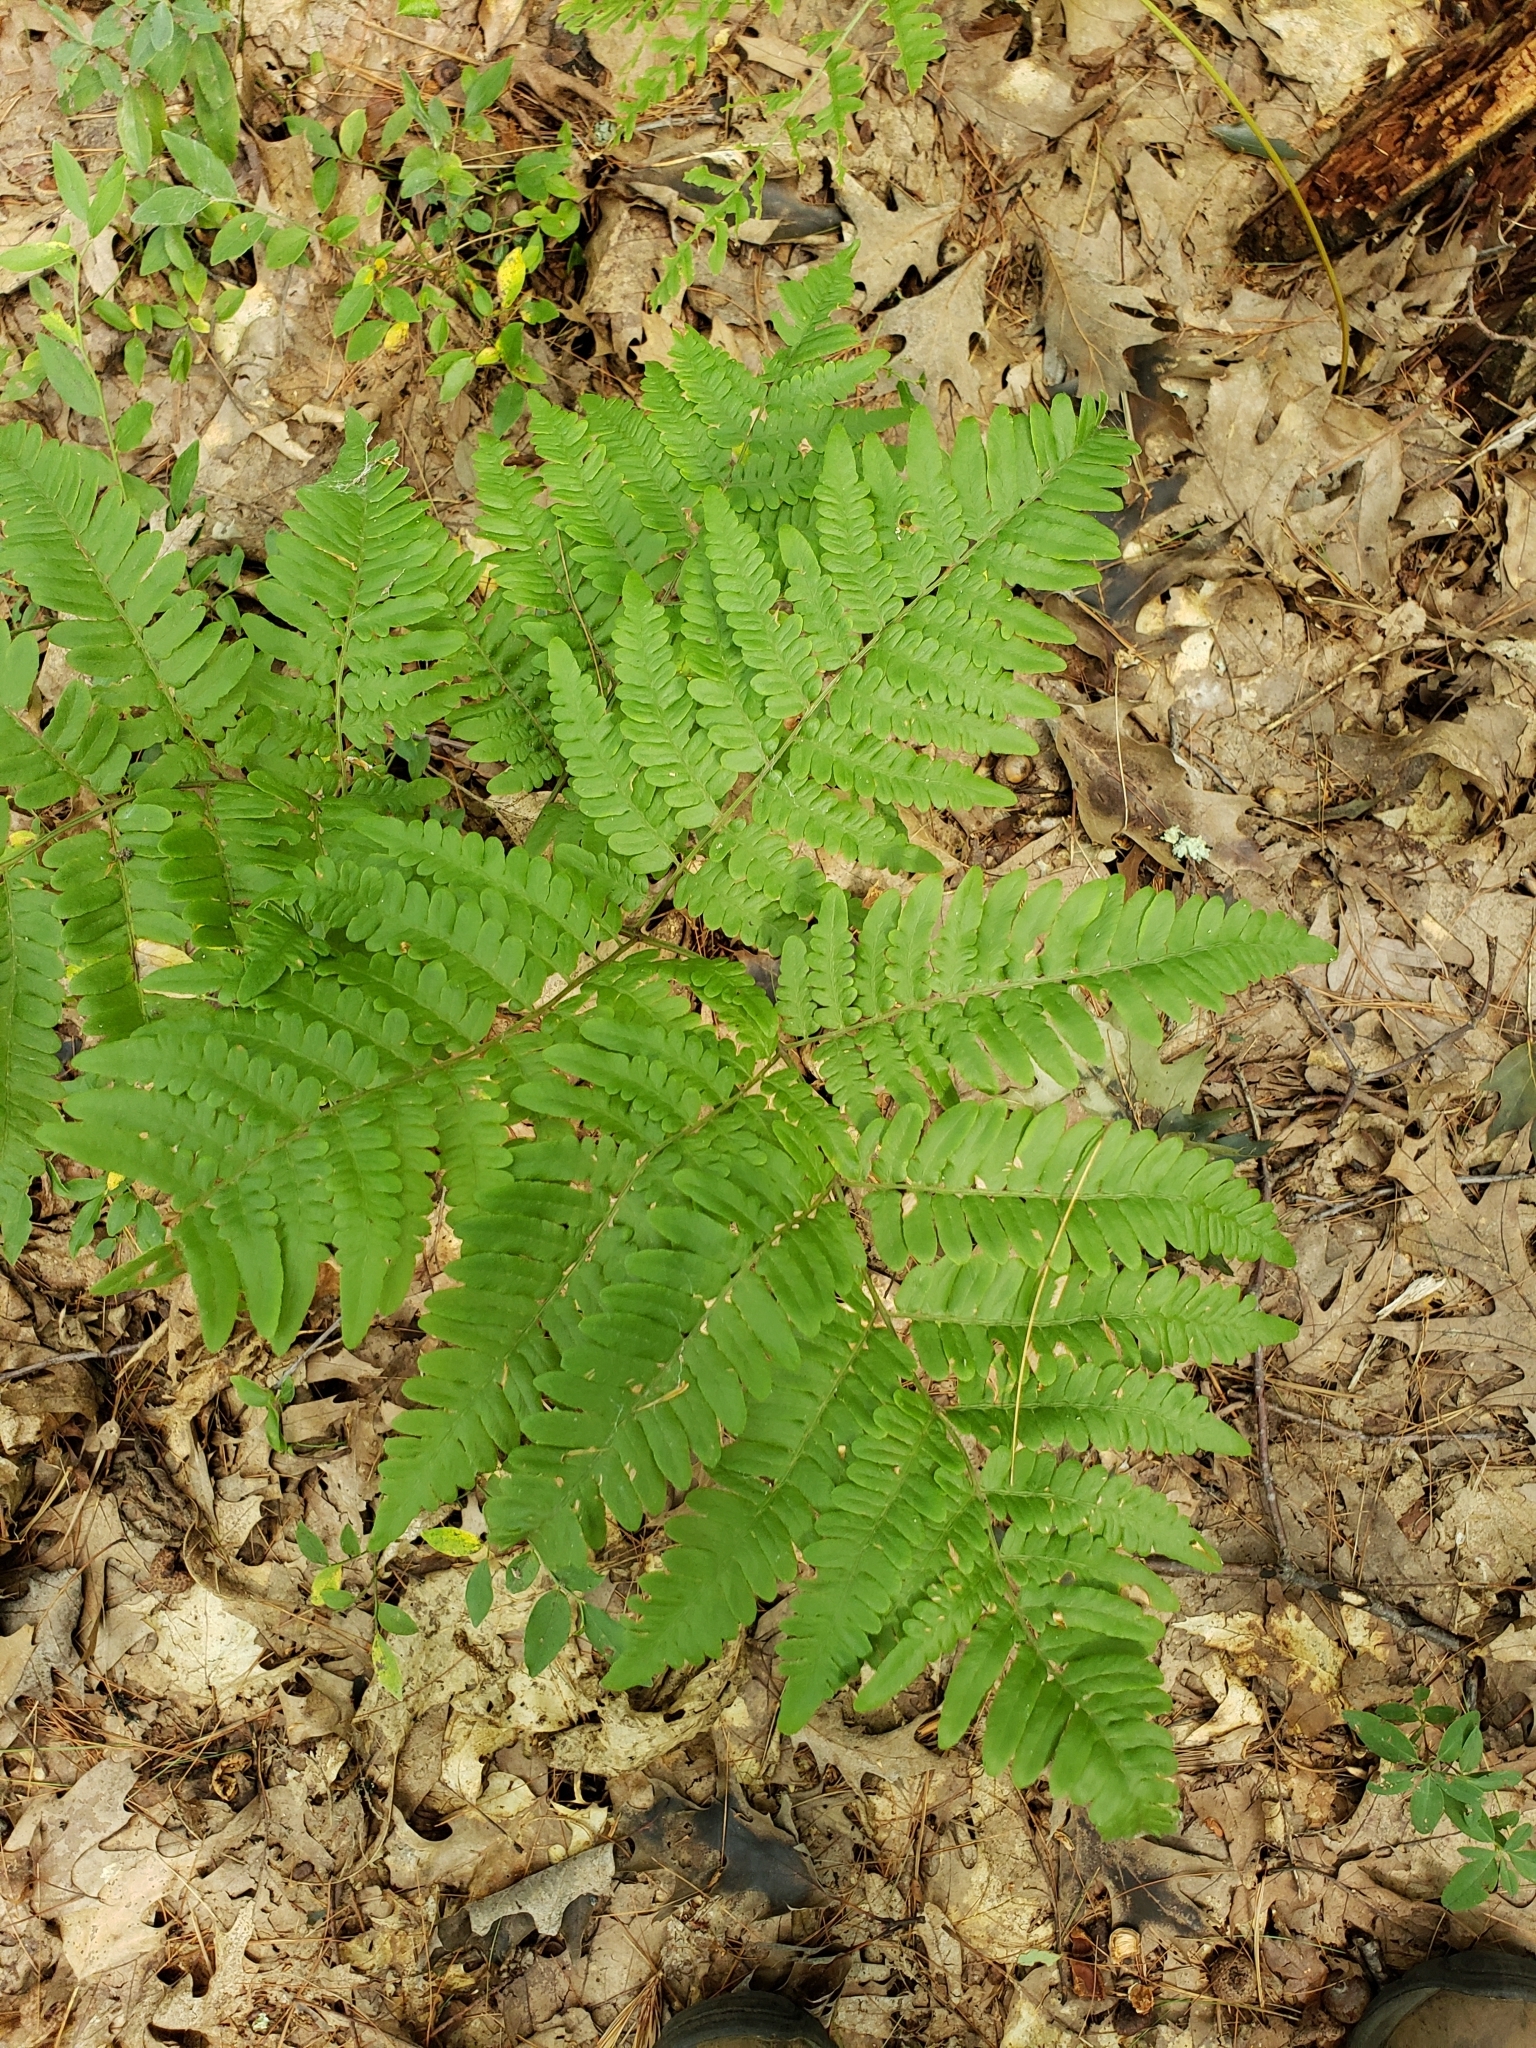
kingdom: Plantae
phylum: Tracheophyta
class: Polypodiopsida
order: Polypodiales
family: Dennstaedtiaceae
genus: Pteridium
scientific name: Pteridium aquilinum
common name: Bracken
